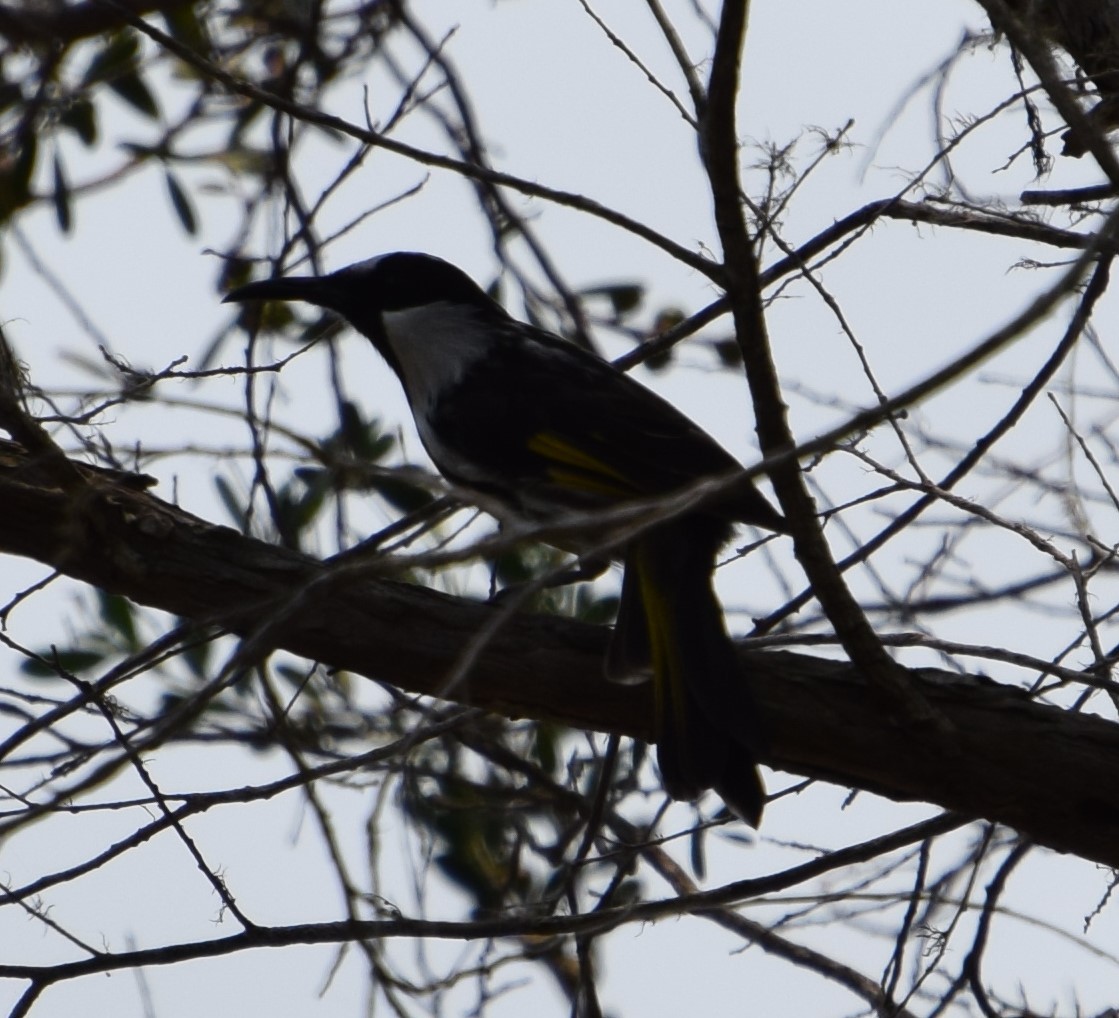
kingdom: Animalia
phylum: Chordata
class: Aves
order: Passeriformes
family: Meliphagidae
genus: Phylidonyris
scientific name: Phylidonyris niger
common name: White-cheeked honeyeater
